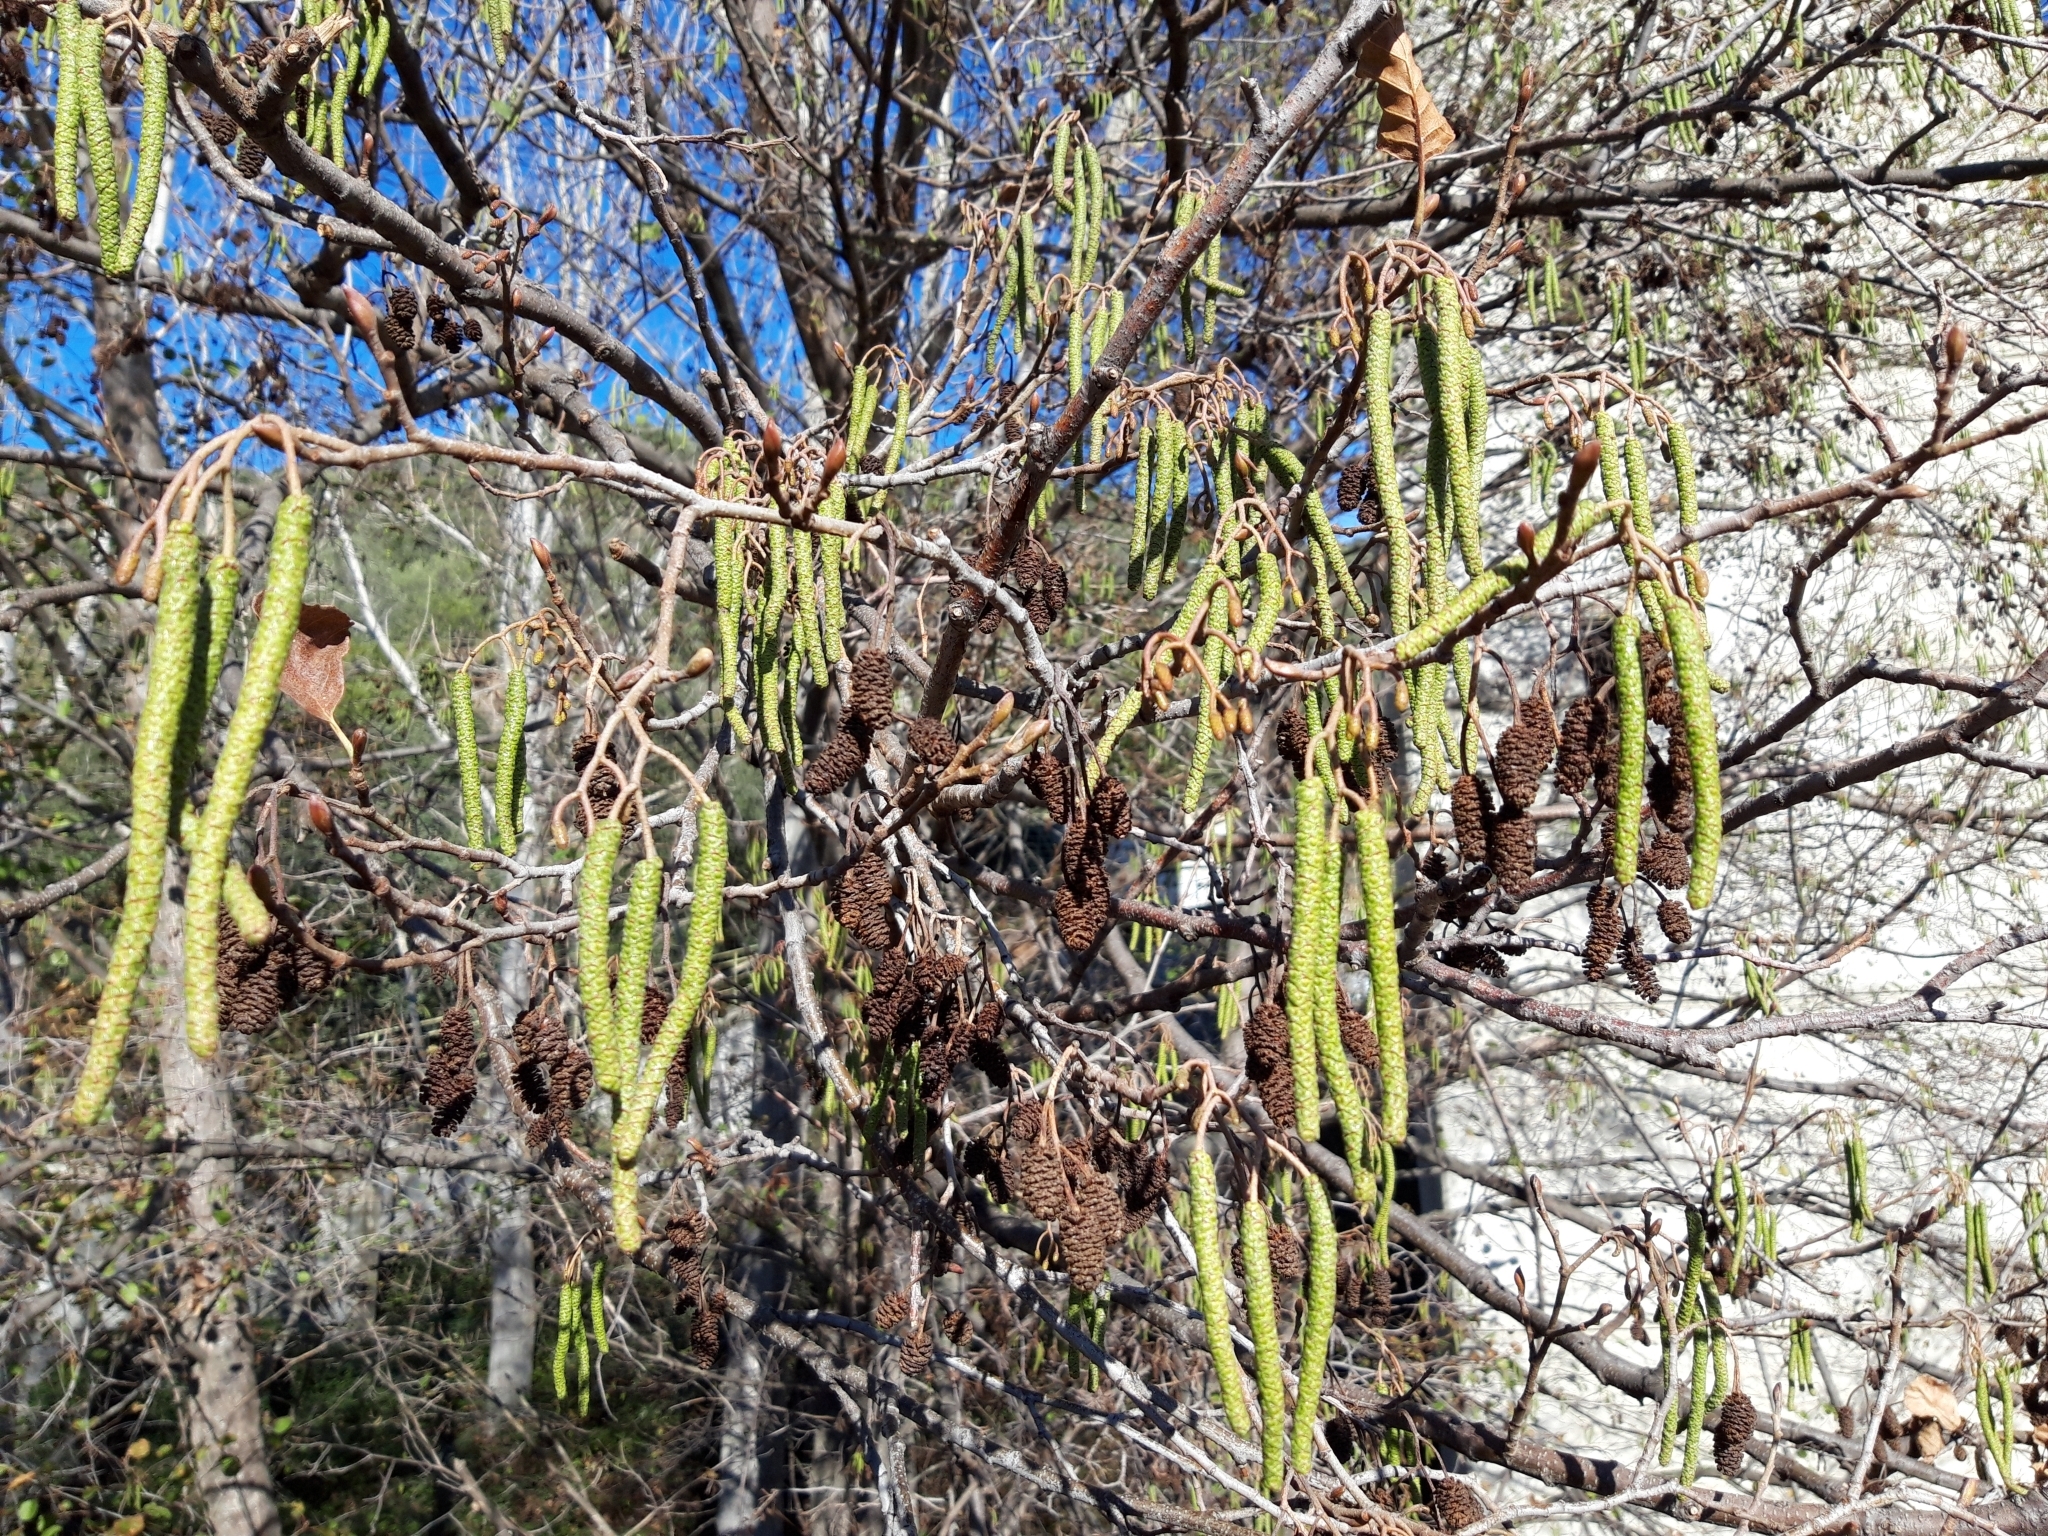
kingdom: Plantae
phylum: Tracheophyta
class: Magnoliopsida
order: Fagales
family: Betulaceae
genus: Alnus
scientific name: Alnus lusitanica
